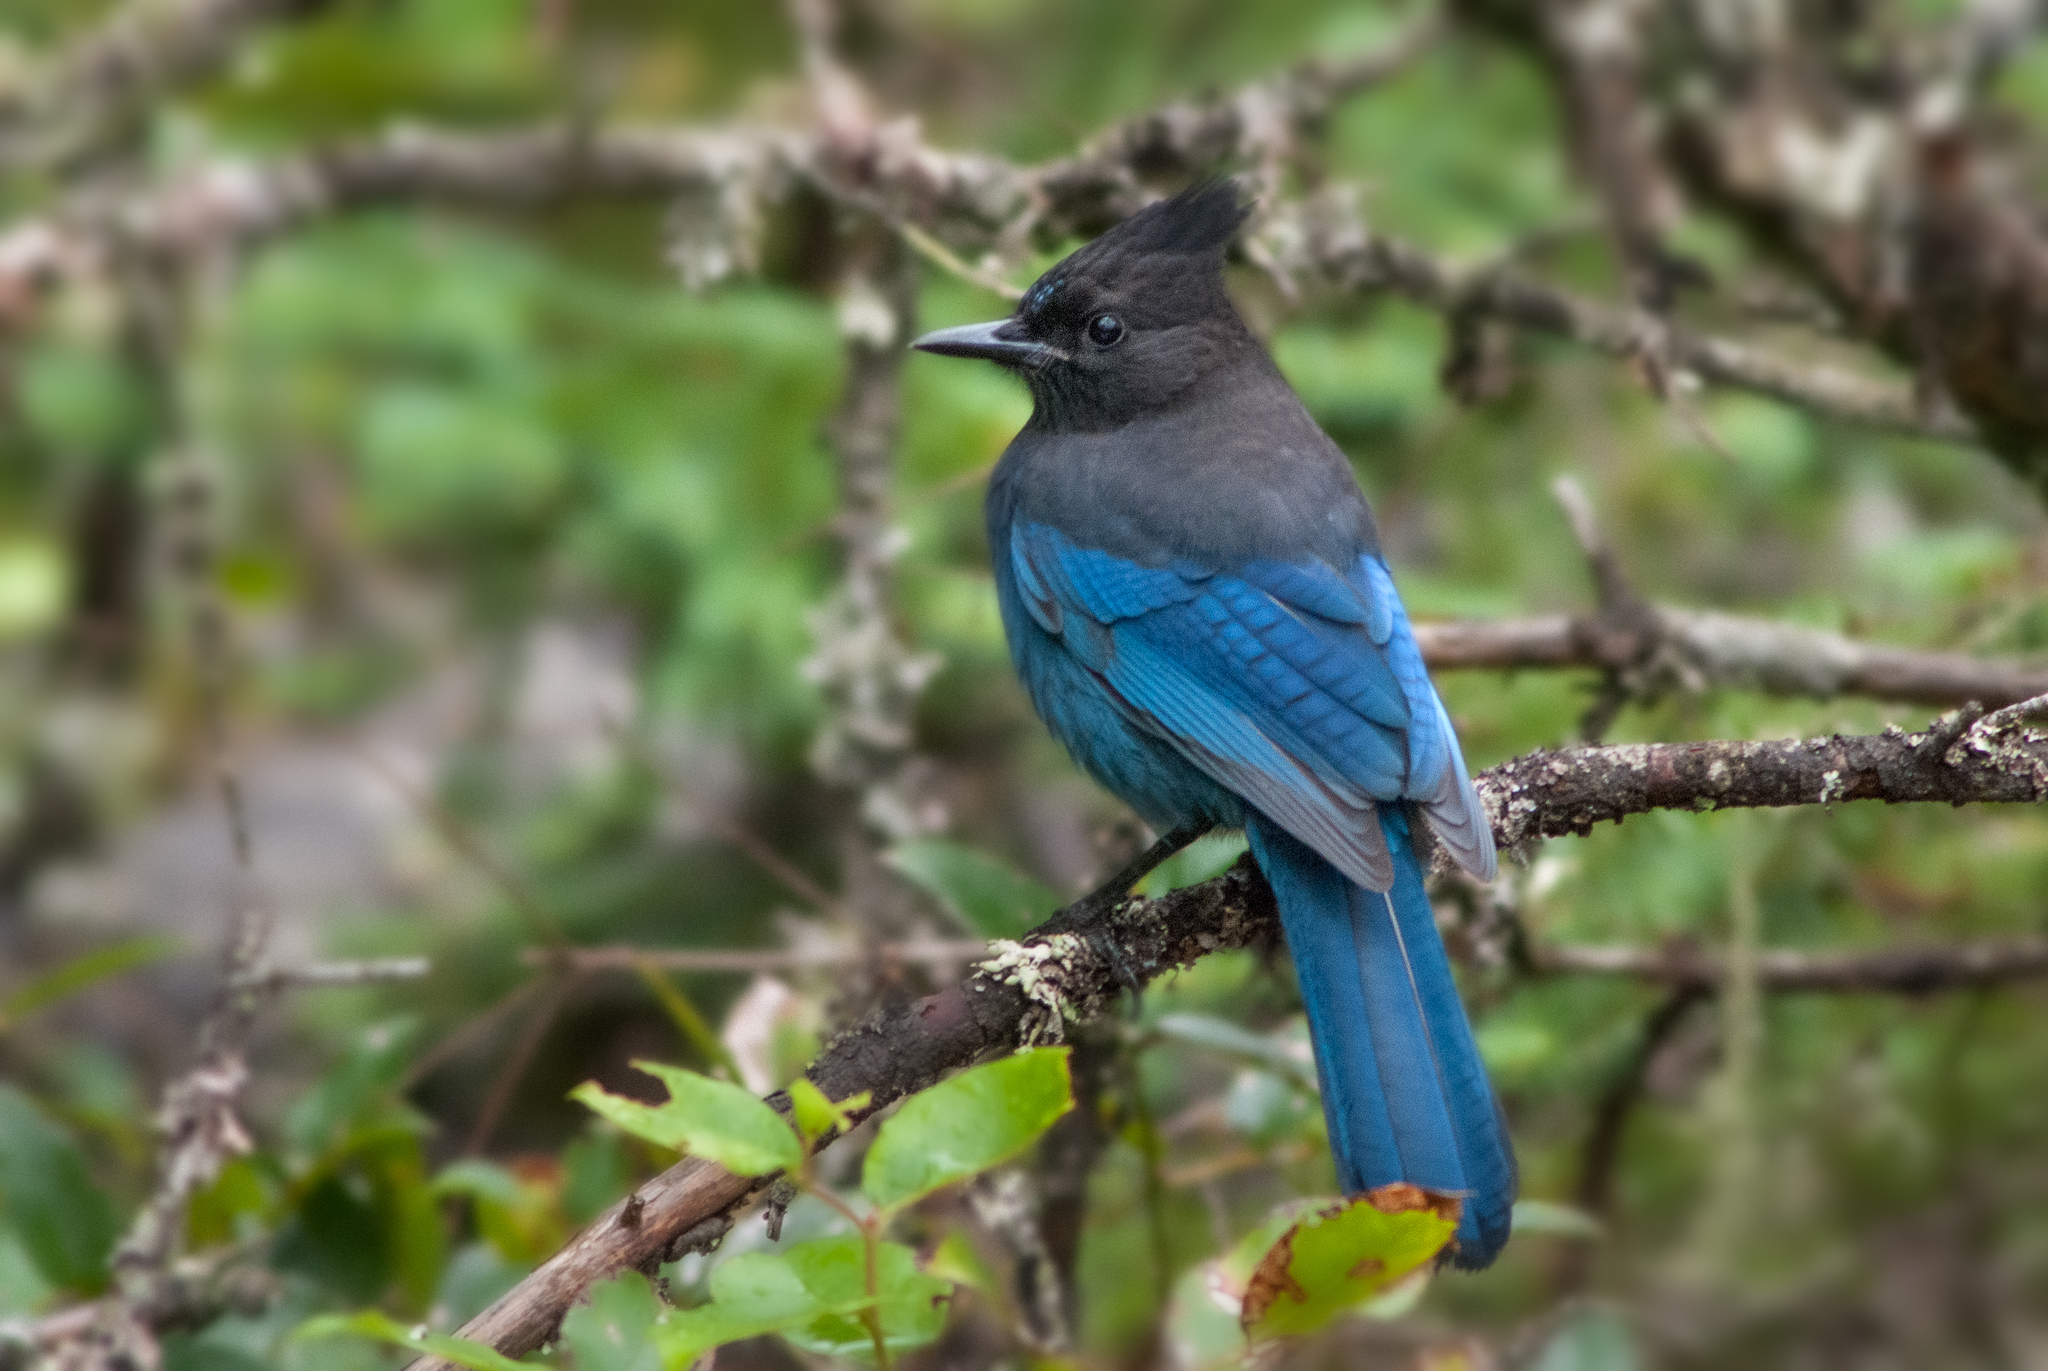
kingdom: Animalia
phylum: Chordata
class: Aves
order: Passeriformes
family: Corvidae
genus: Cyanocitta
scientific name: Cyanocitta stelleri
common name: Steller's jay
